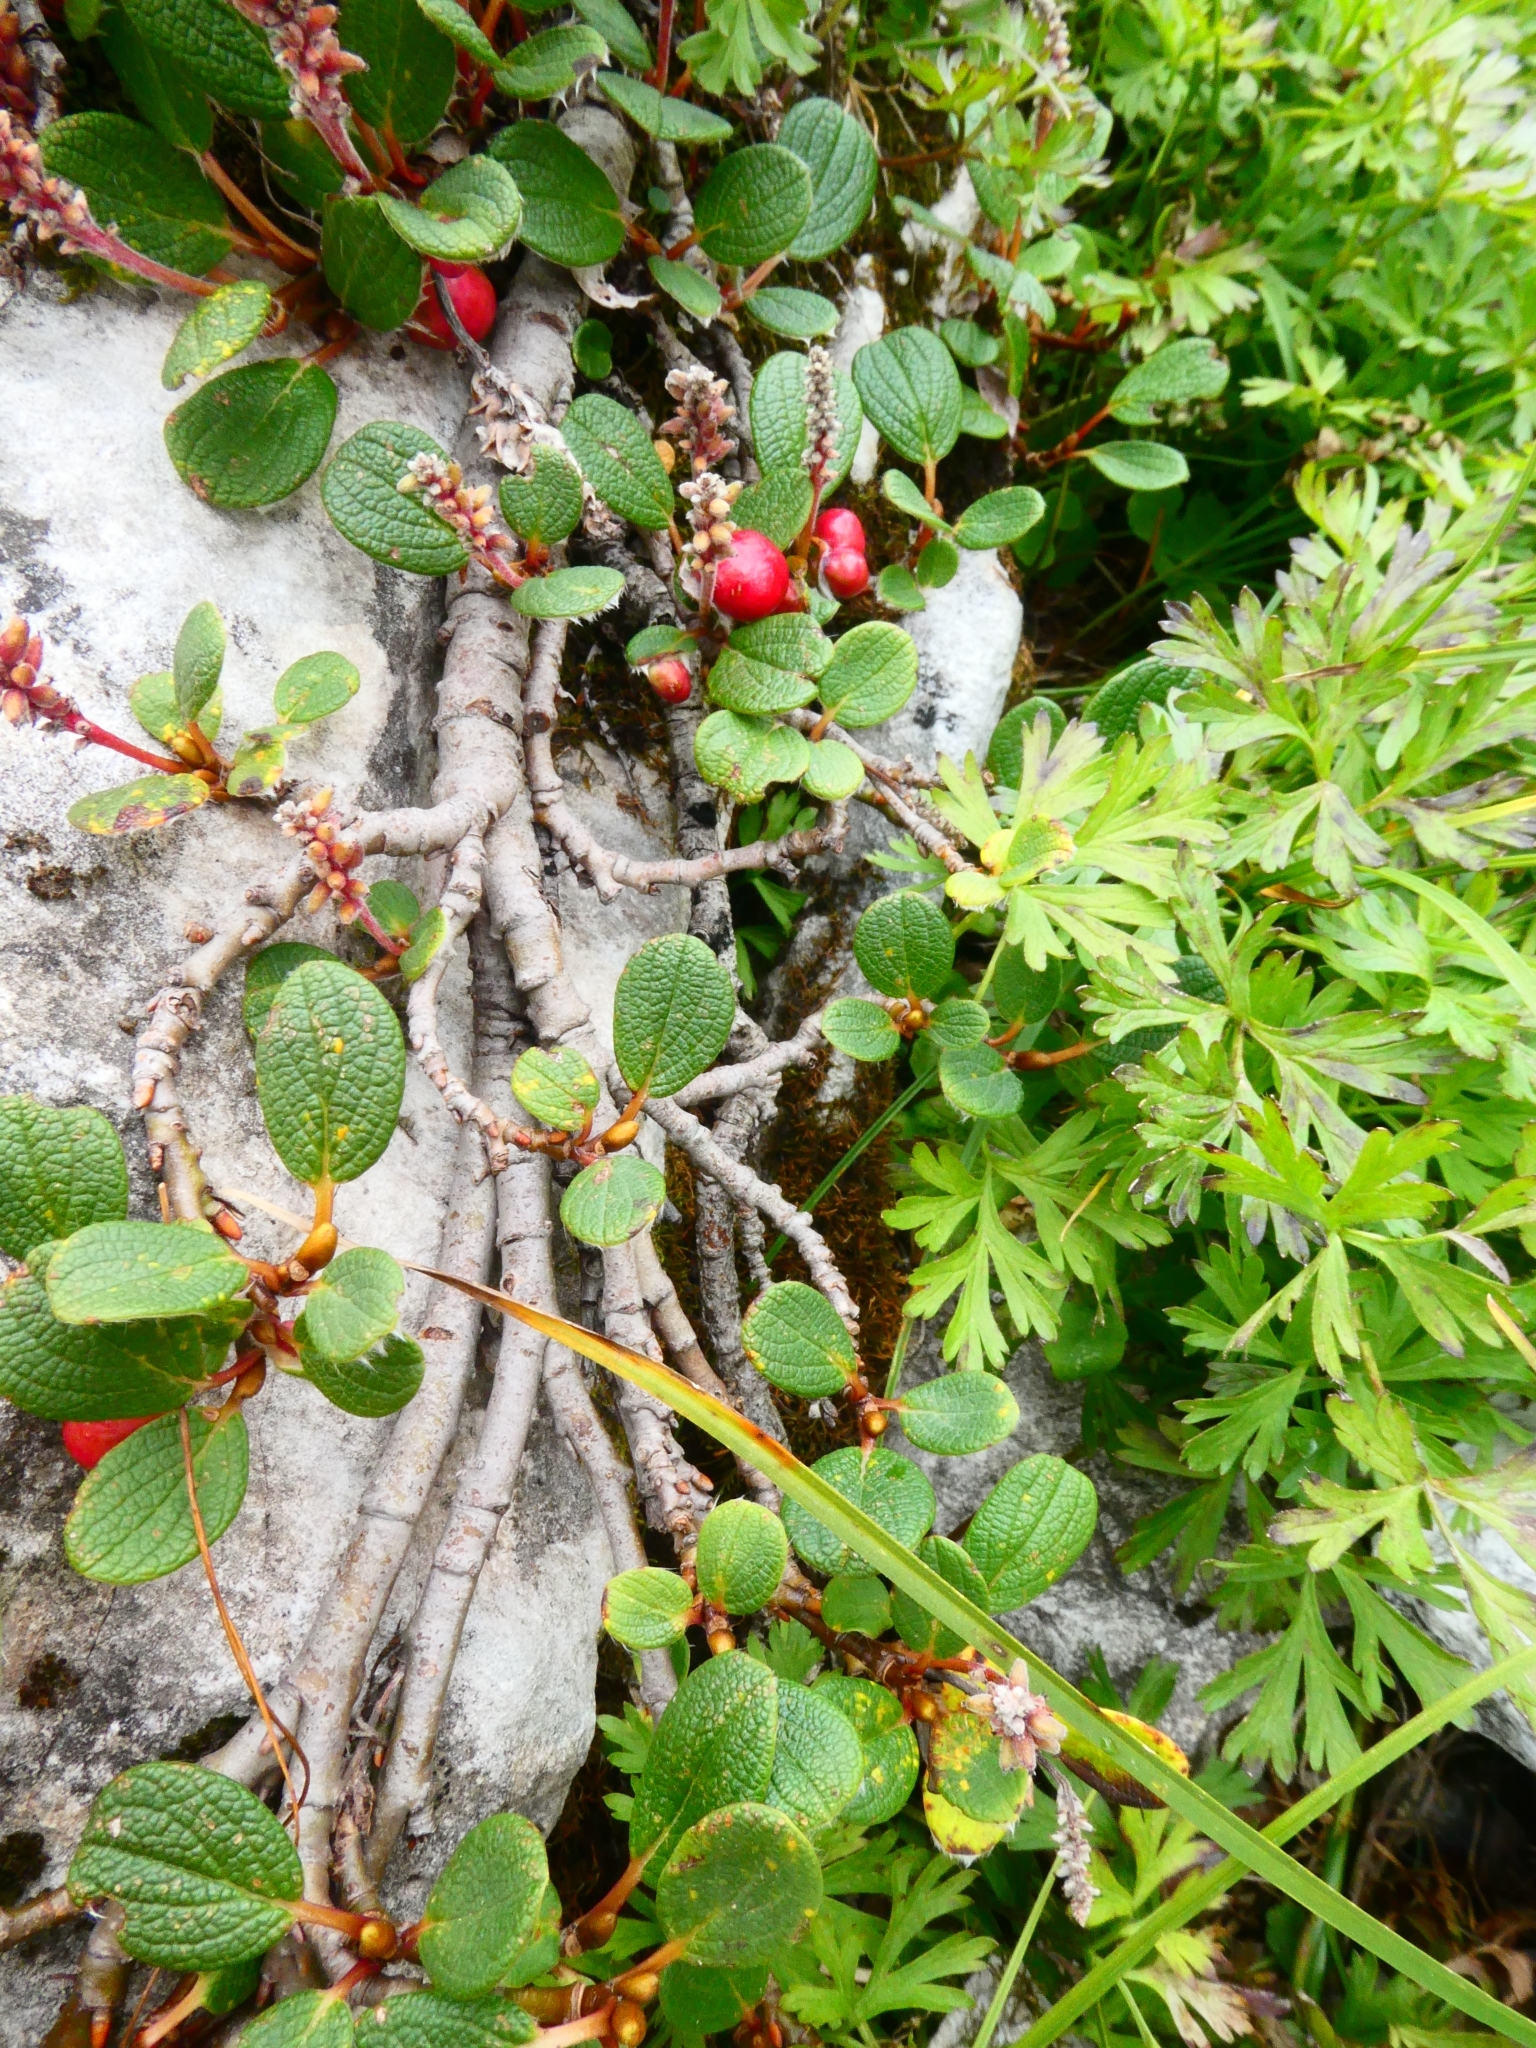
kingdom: Plantae
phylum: Tracheophyta
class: Magnoliopsida
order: Malpighiales
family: Salicaceae
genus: Salix
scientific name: Salix reticulata
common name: Net-leaved willow
